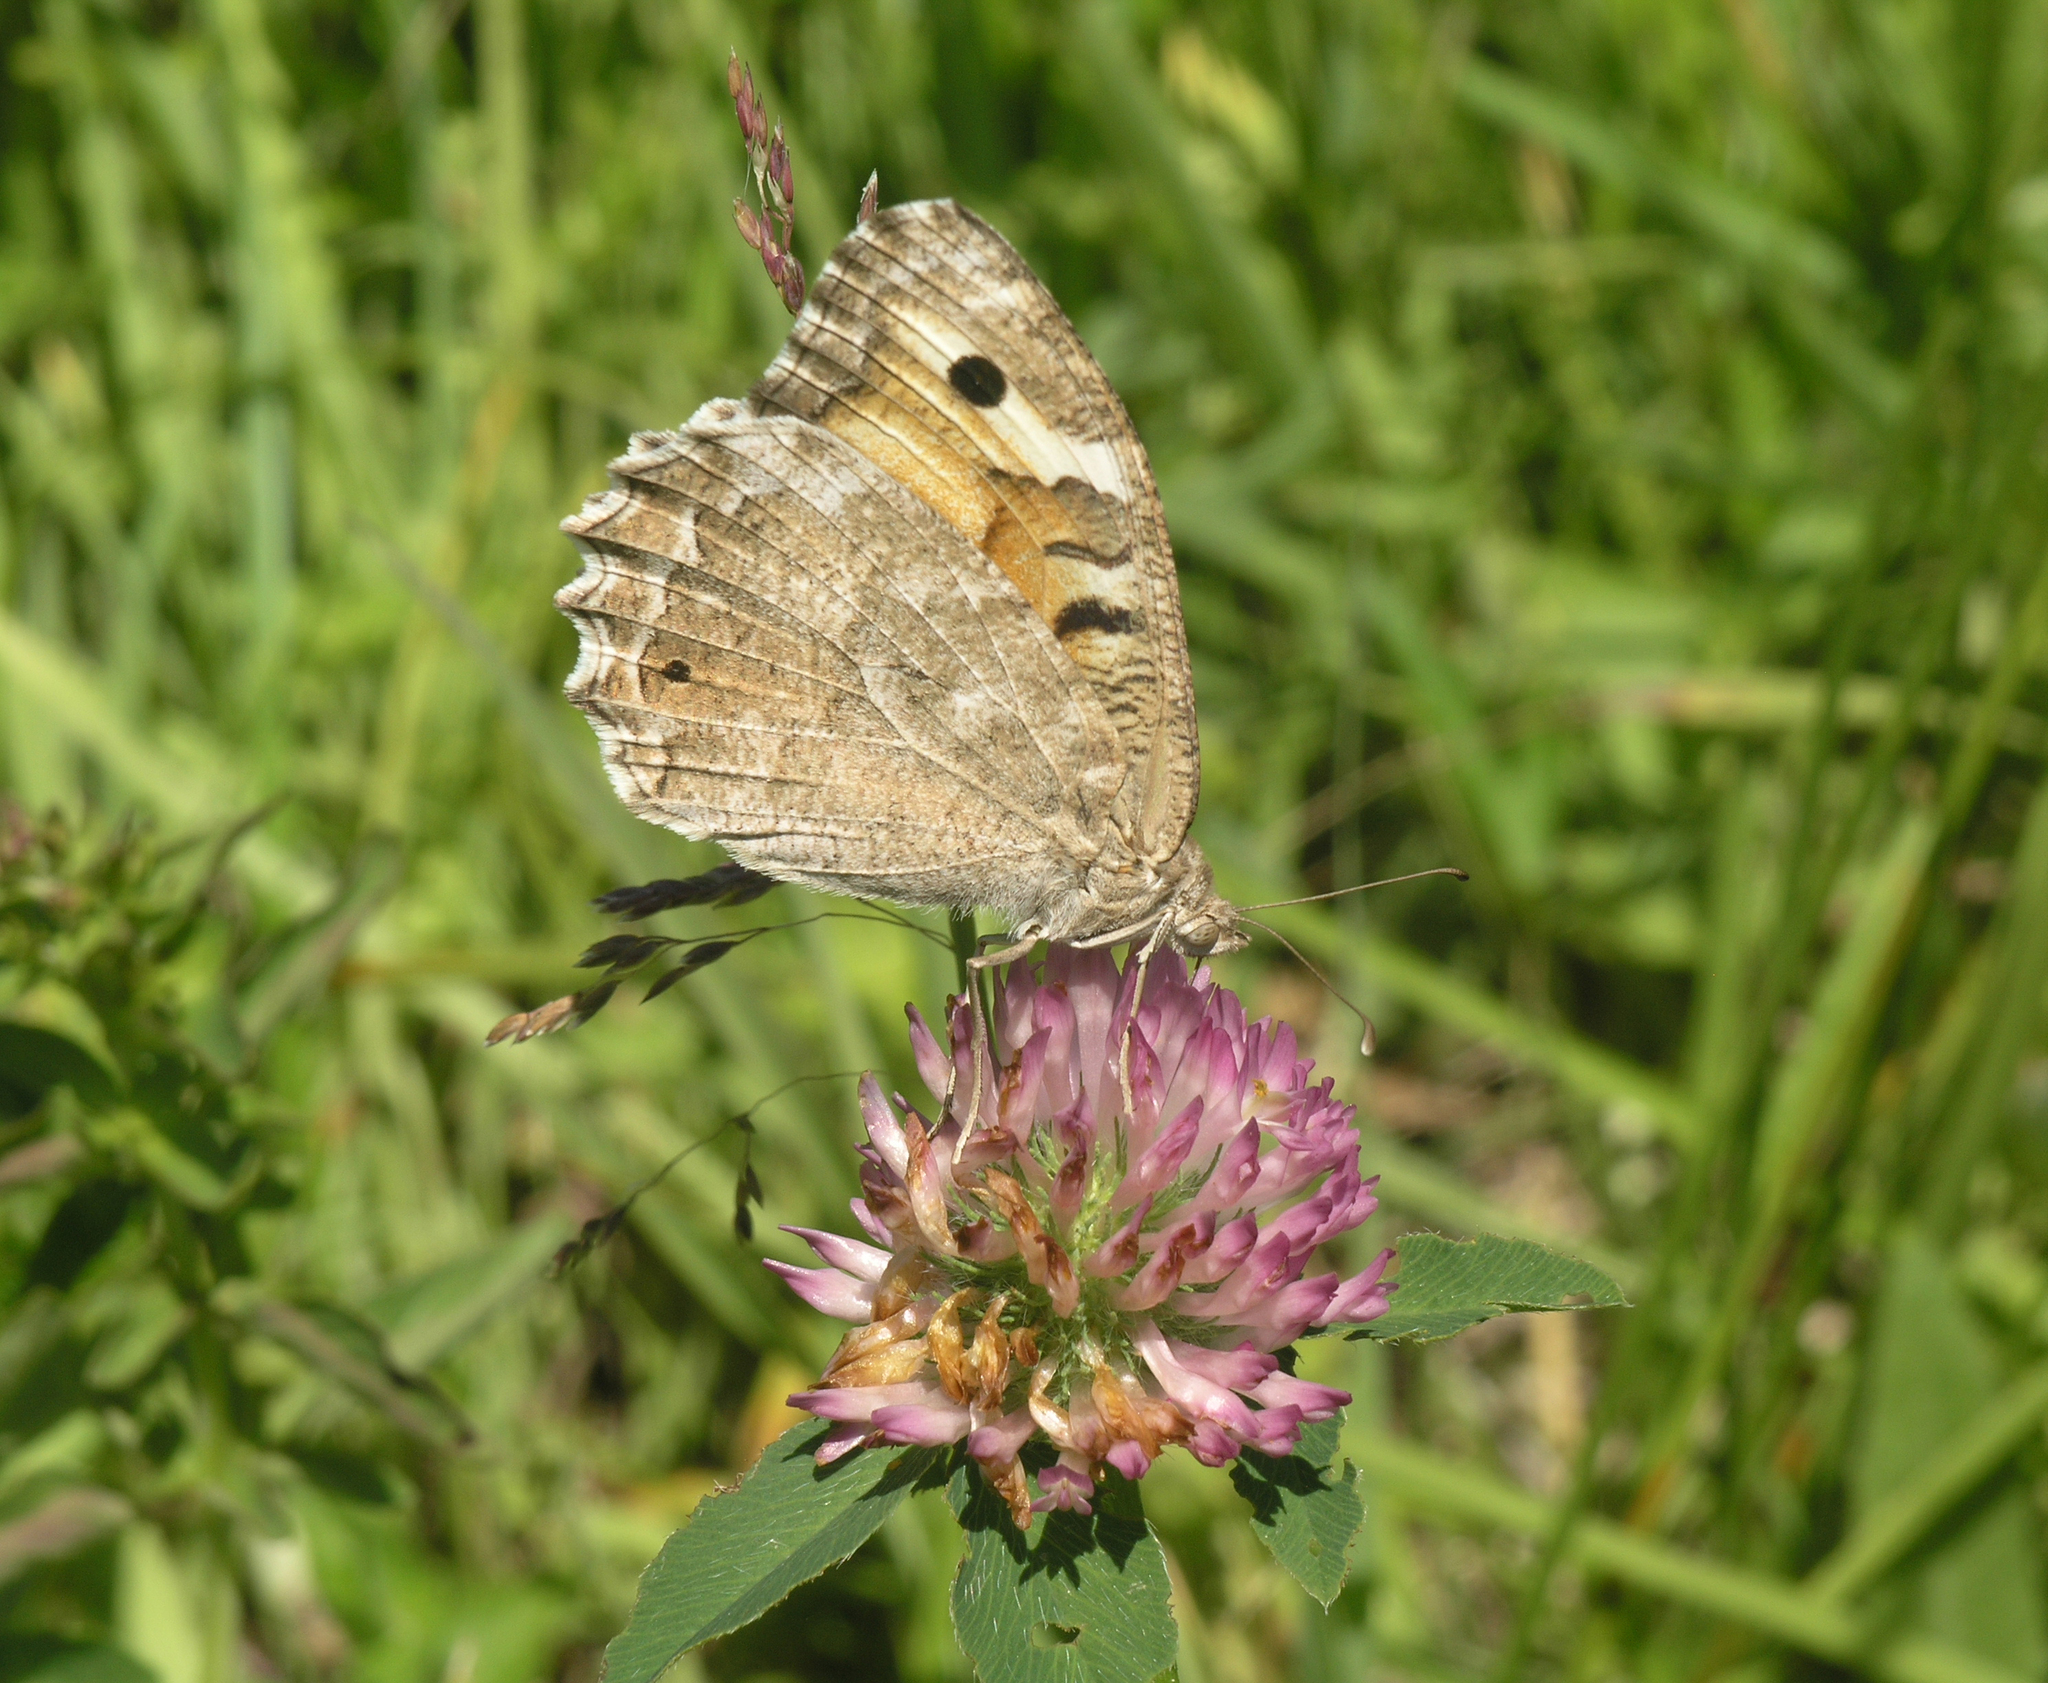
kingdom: Animalia
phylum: Arthropoda
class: Insecta
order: Lepidoptera
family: Nymphalidae
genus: Satyrus
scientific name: Satyrus Chazara enervata
